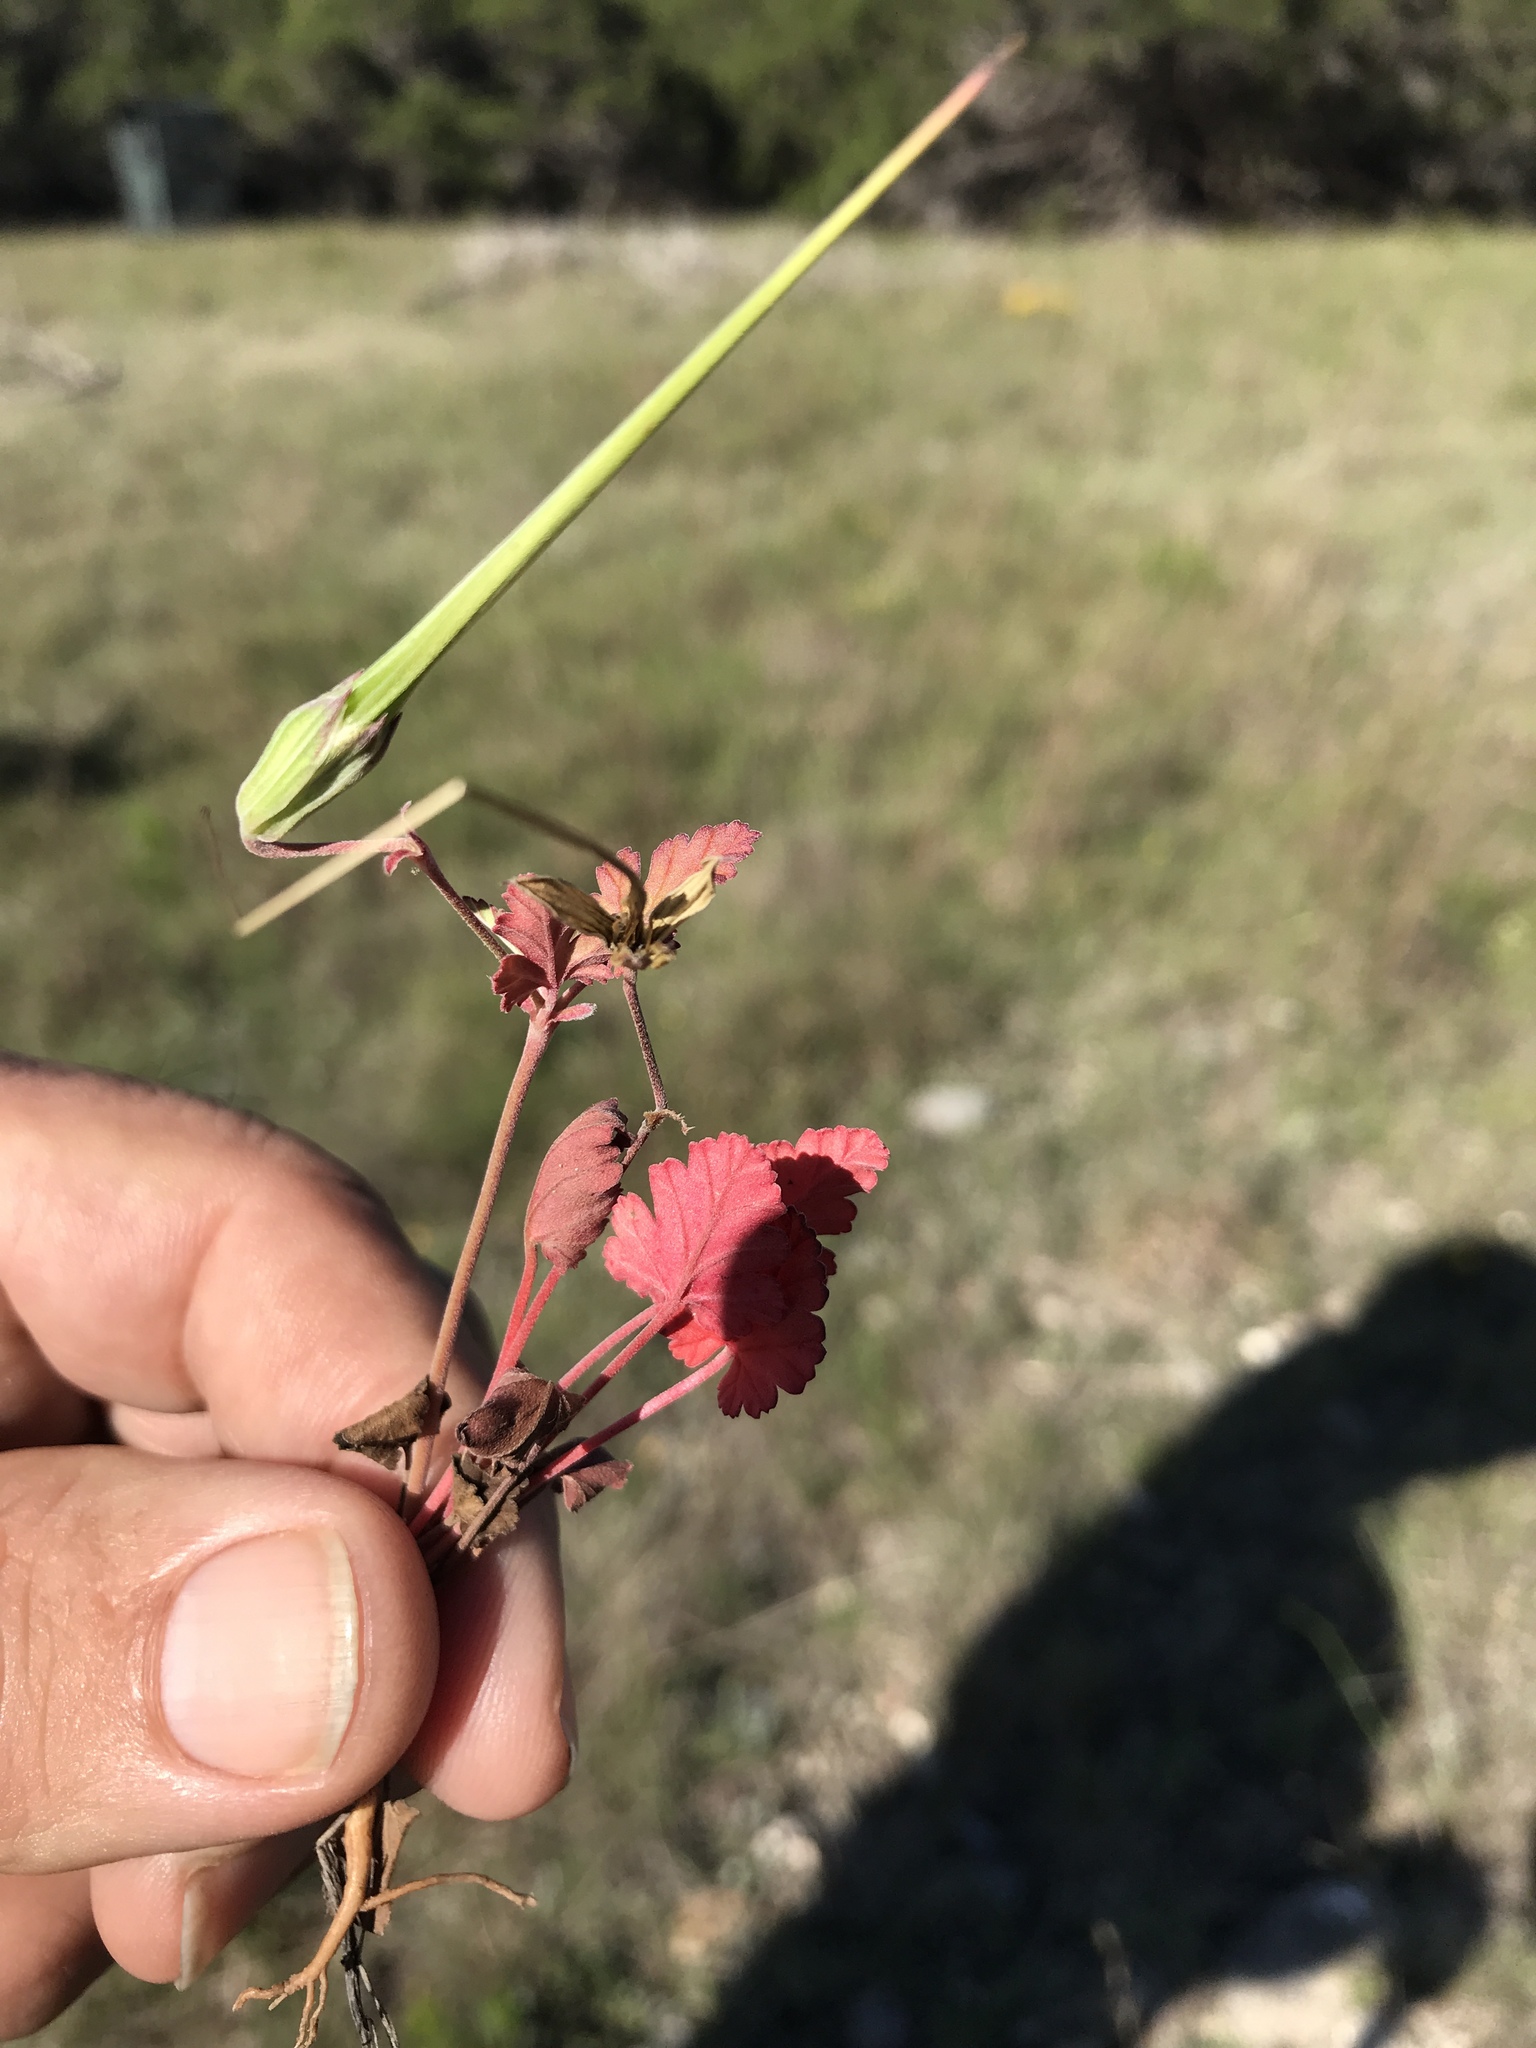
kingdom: Plantae
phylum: Tracheophyta
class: Magnoliopsida
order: Geraniales
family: Geraniaceae
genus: Erodium
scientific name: Erodium texanum
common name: Texas stork's-bill
